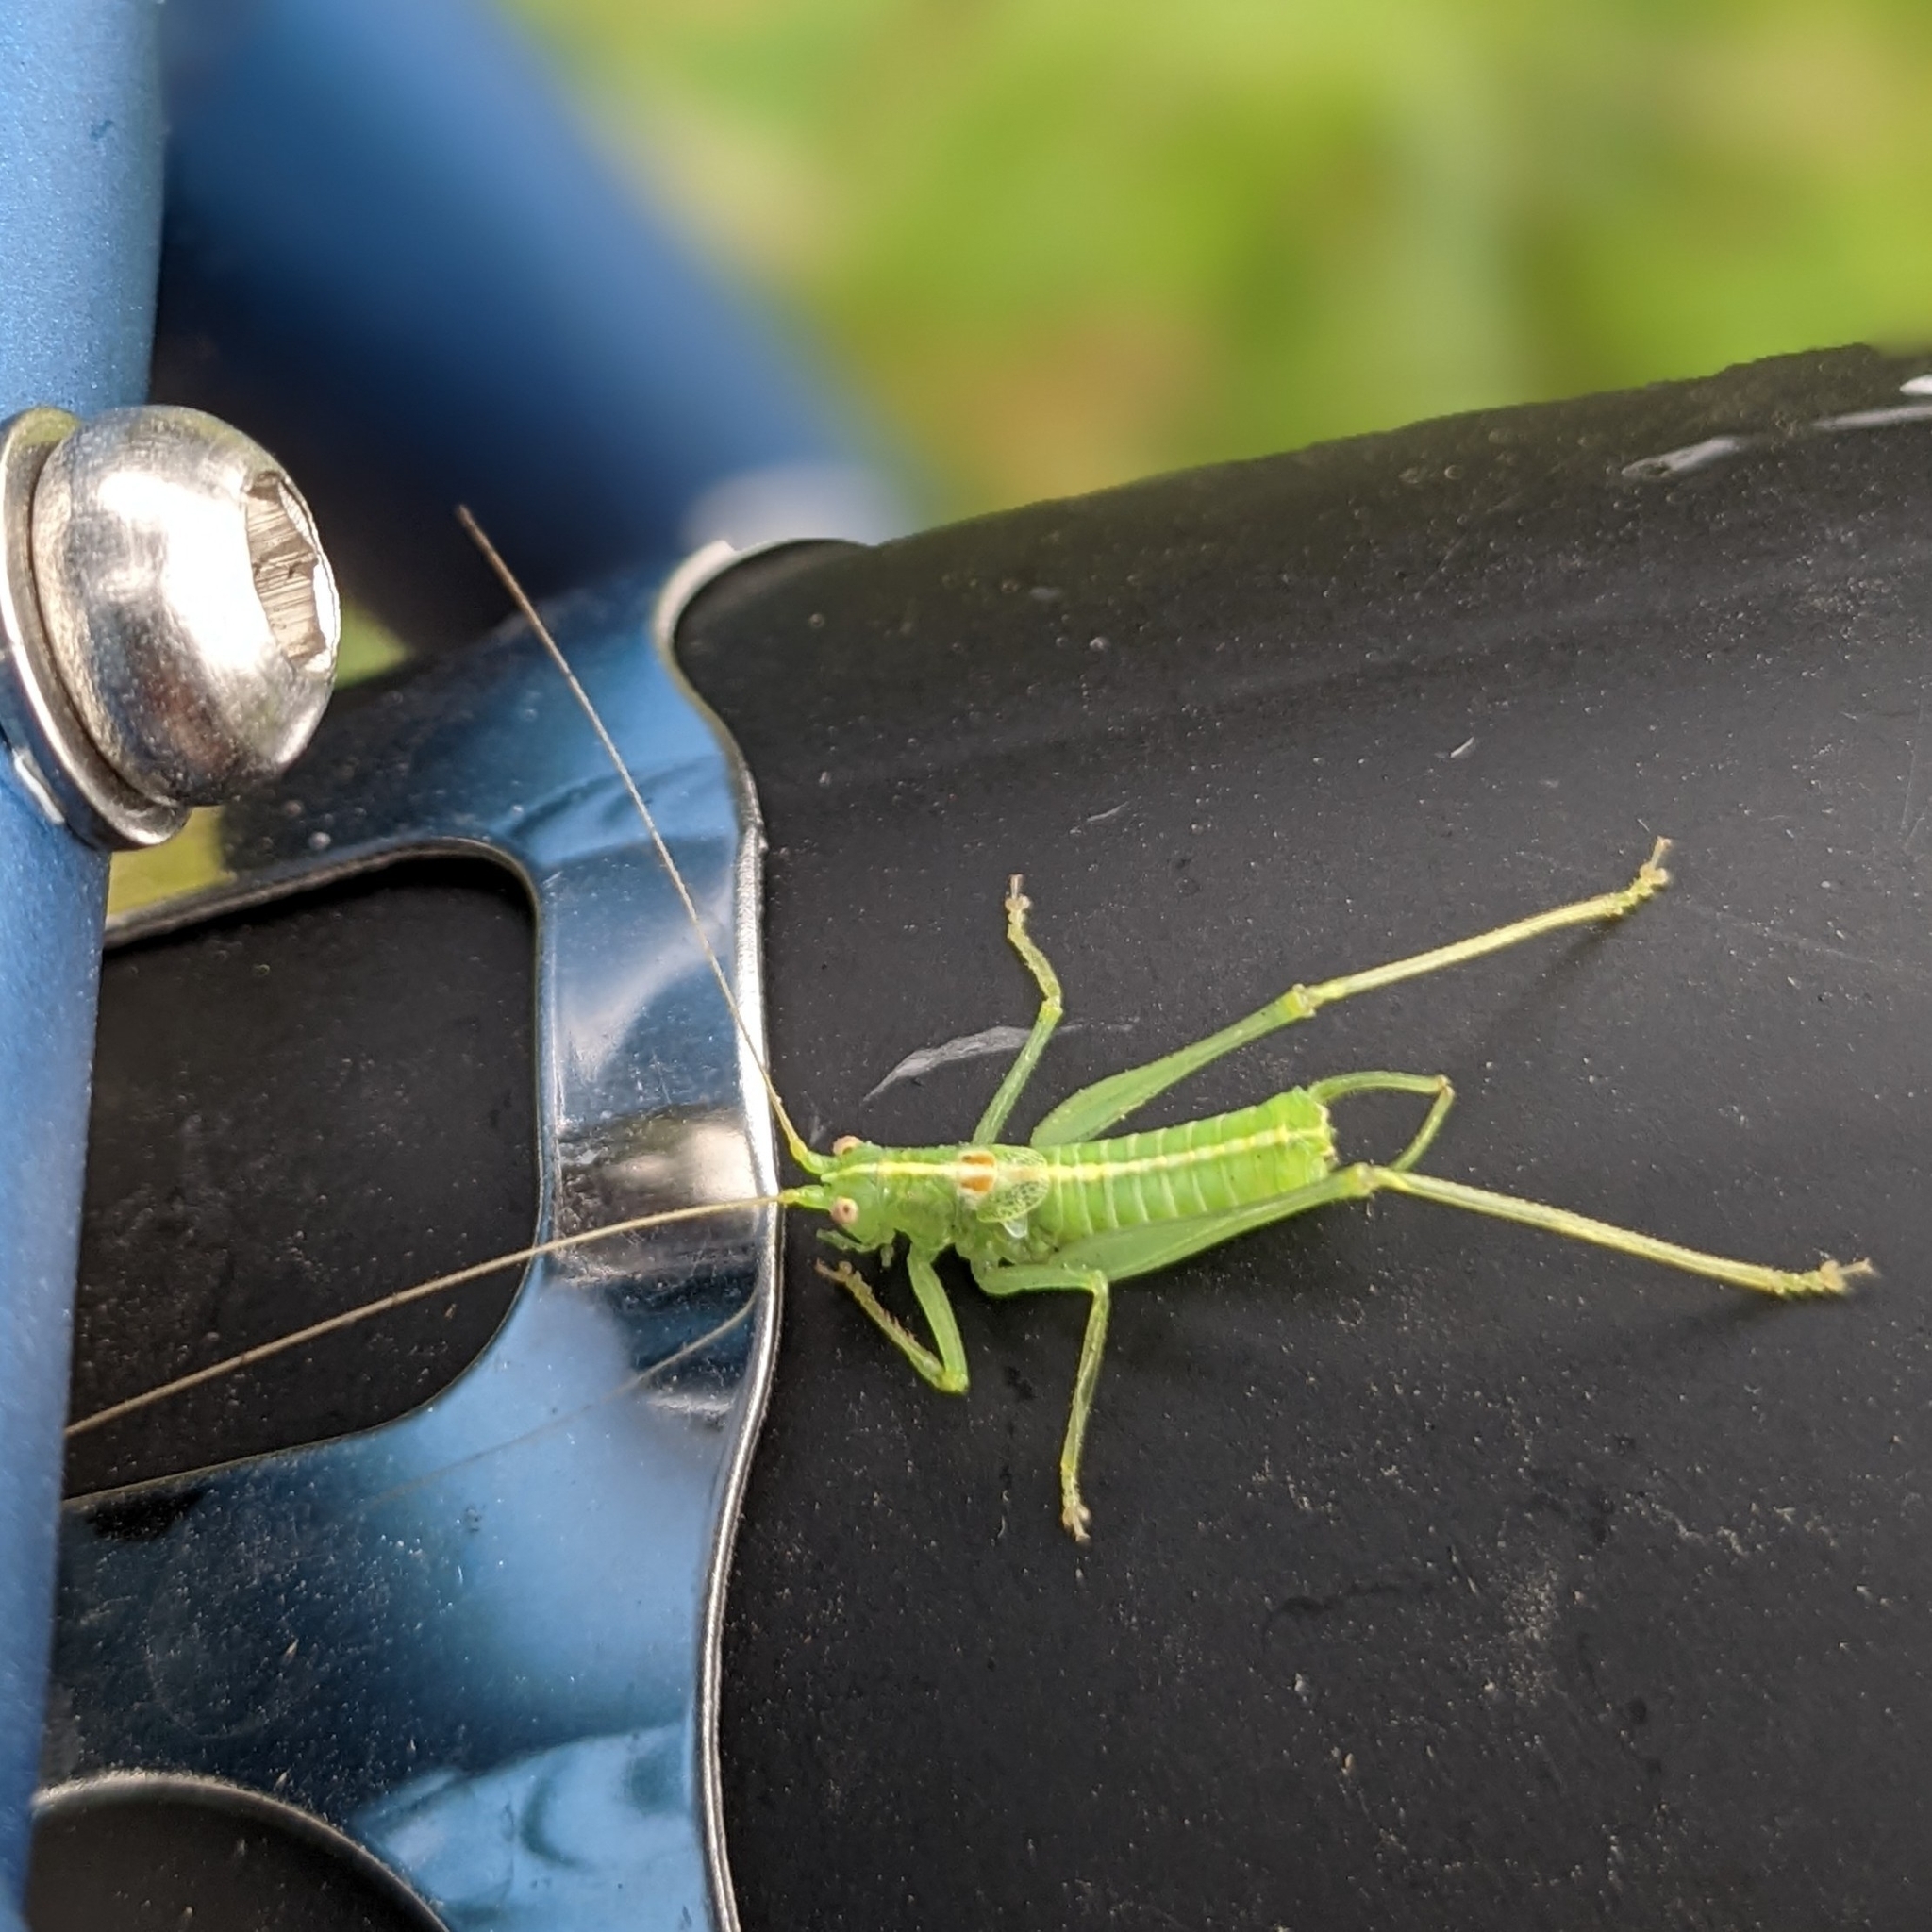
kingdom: Animalia
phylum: Arthropoda
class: Insecta
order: Orthoptera
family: Tettigoniidae
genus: Meconema
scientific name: Meconema meridionale
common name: Southern oak bush-cricket
